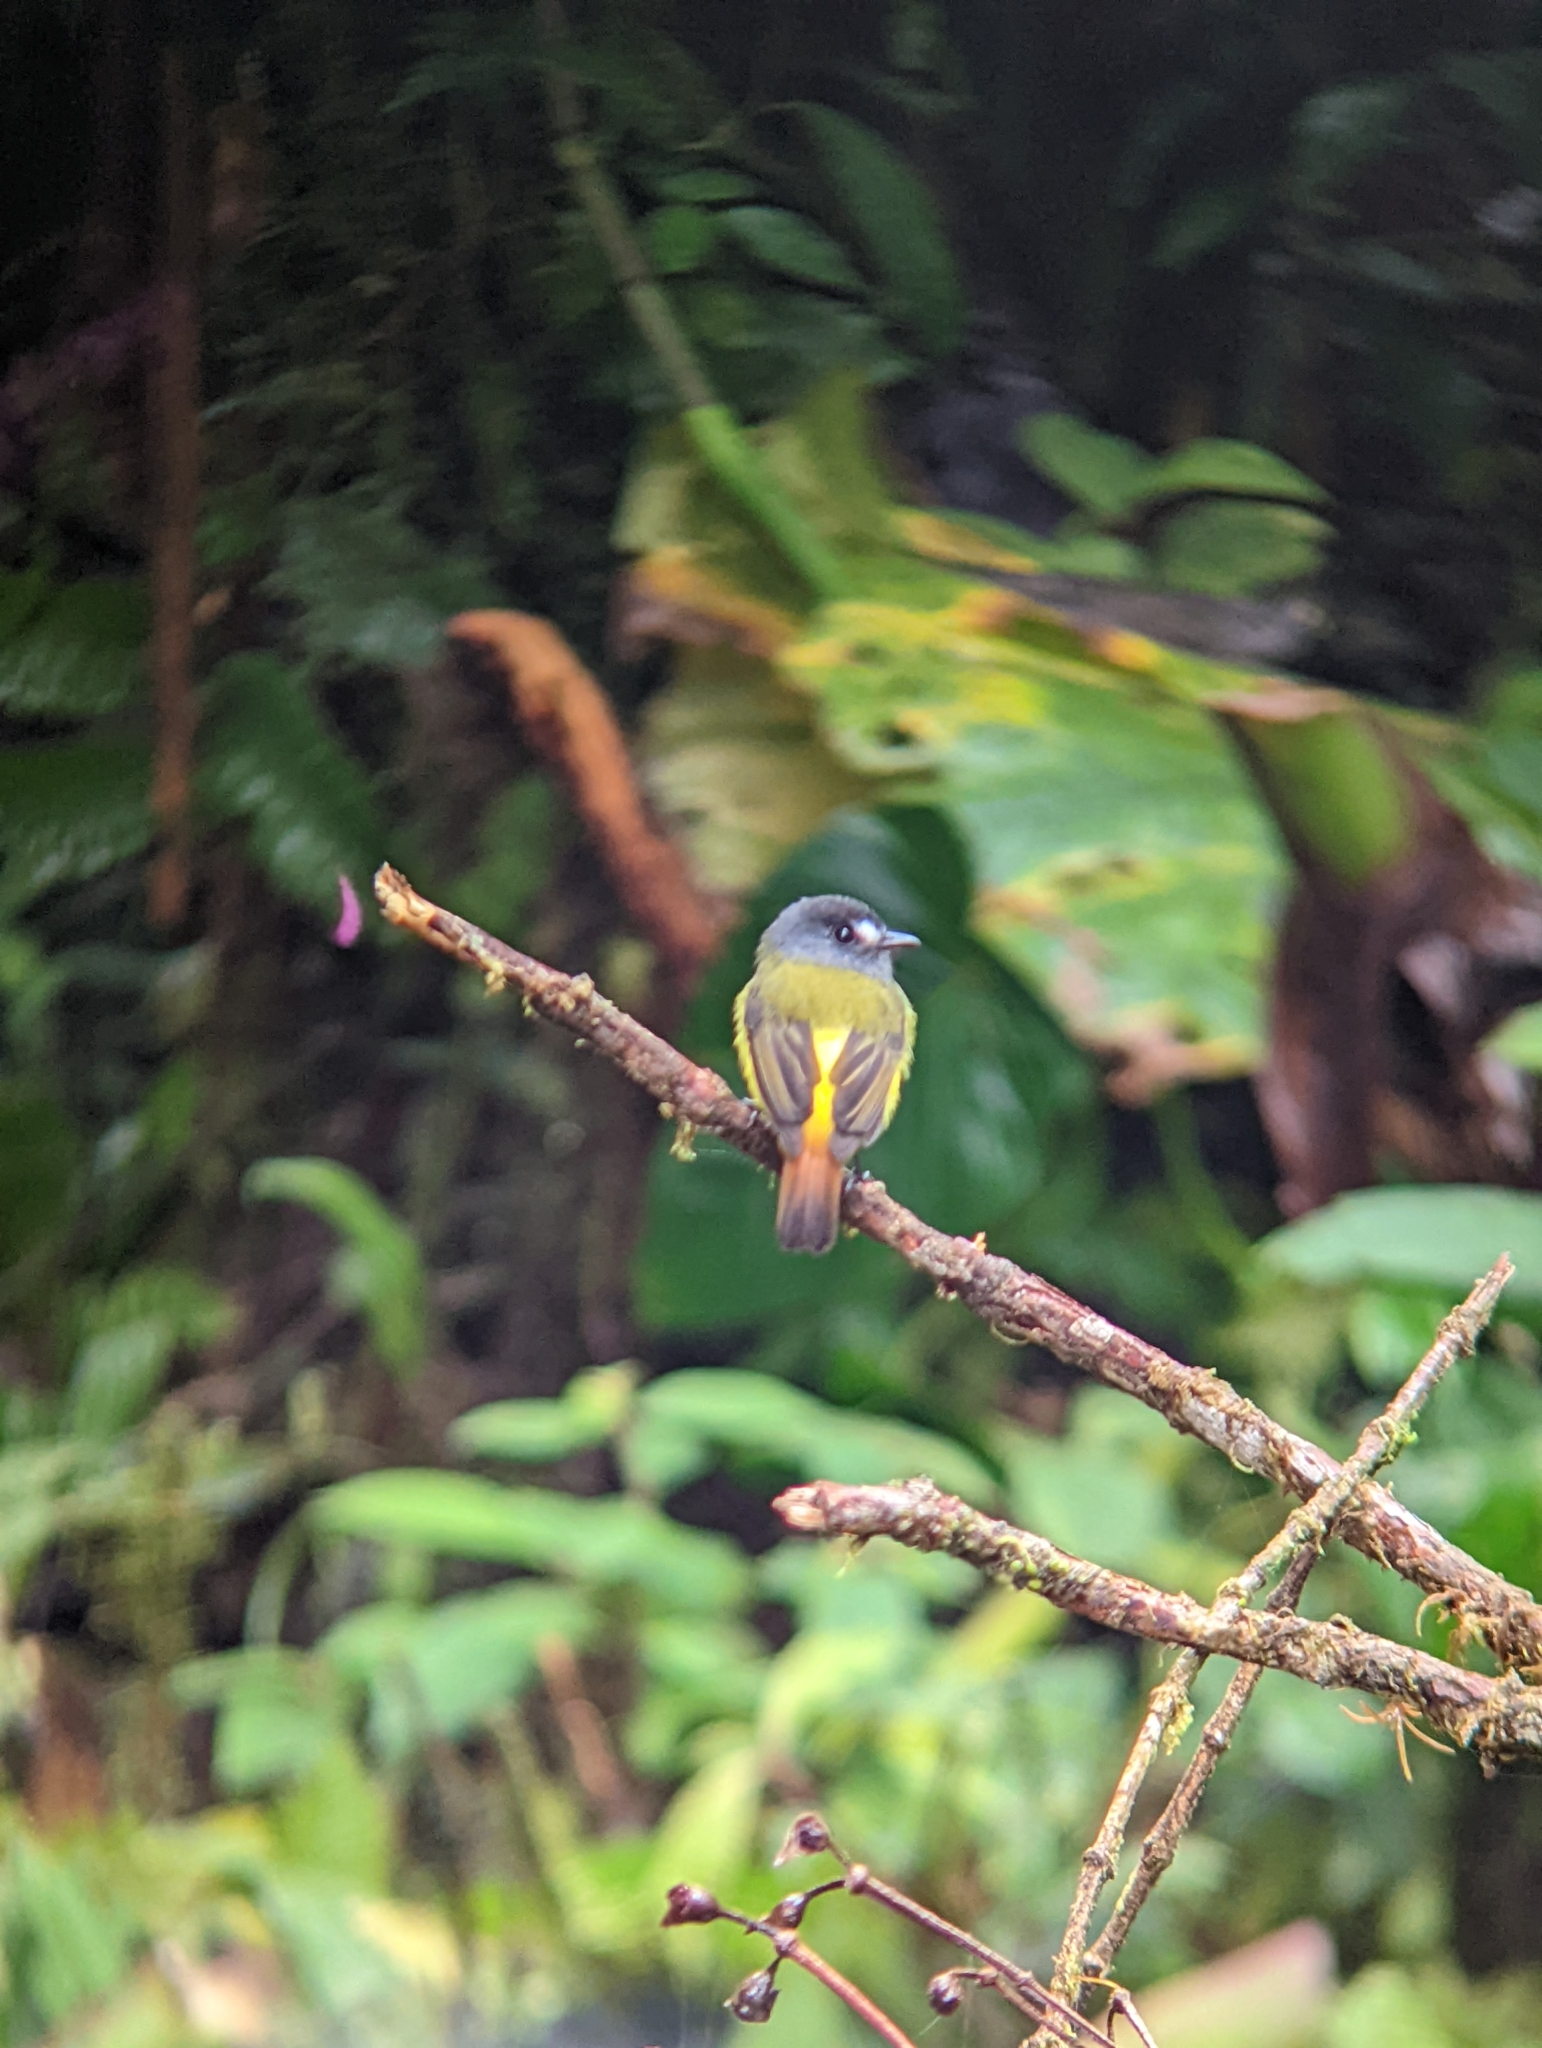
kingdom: Animalia
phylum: Chordata
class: Aves
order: Passeriformes
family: Tyrannidae
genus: Myiotriccus
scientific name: Myiotriccus ornatus
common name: Ornate flycatcher
